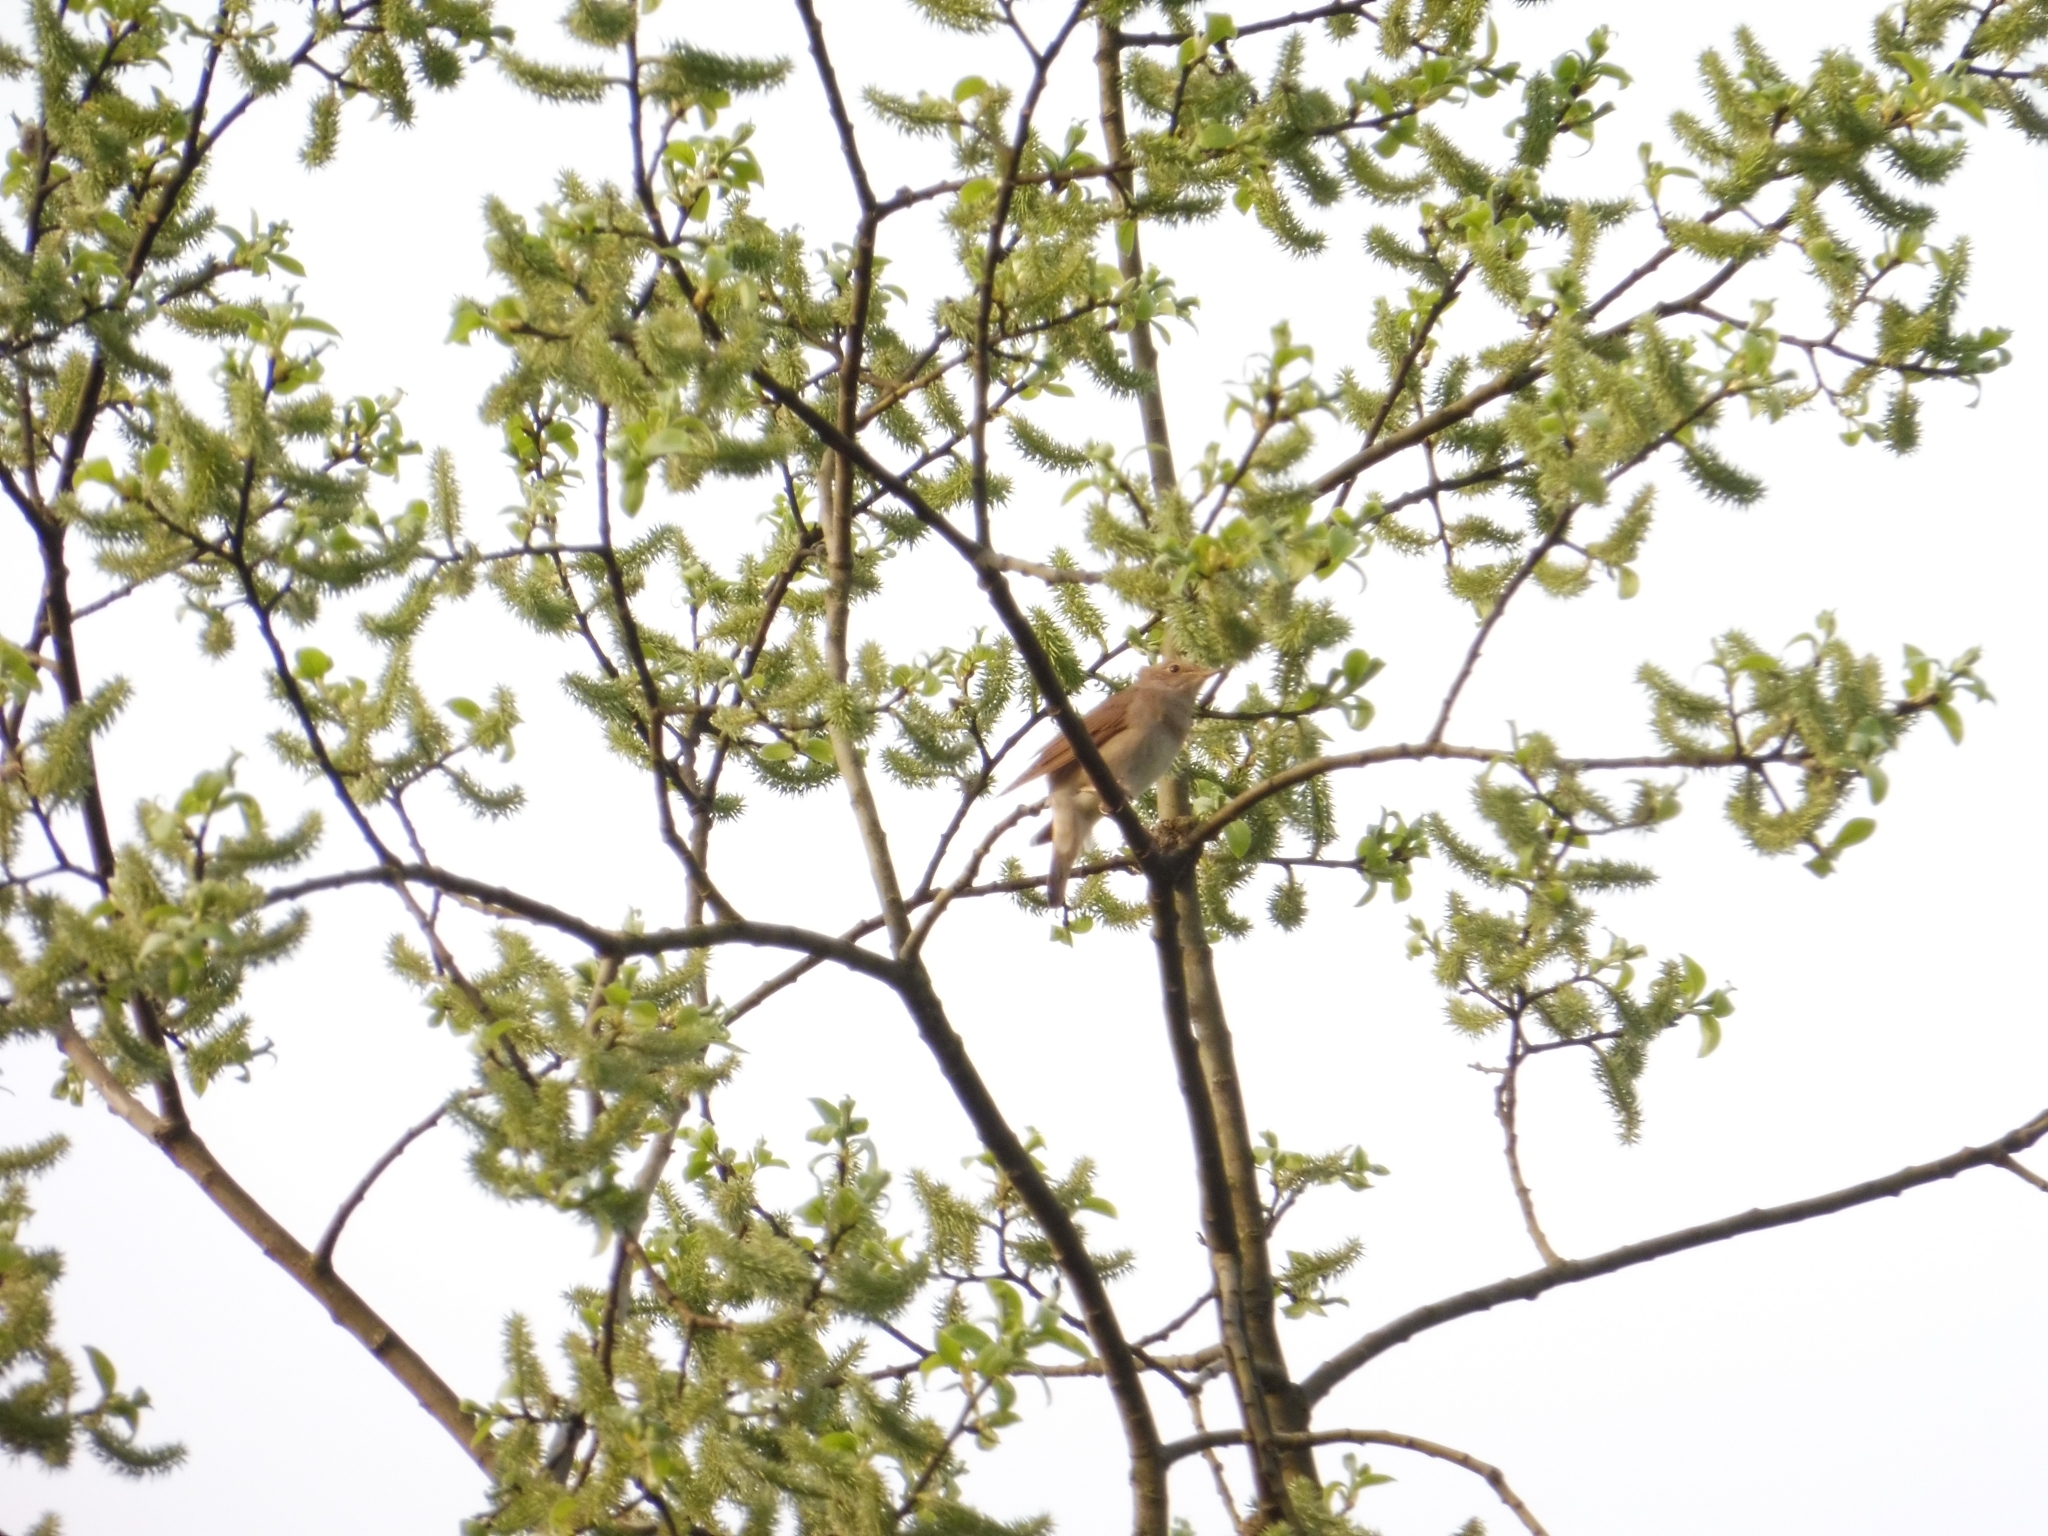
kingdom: Animalia
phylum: Chordata
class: Aves
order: Passeriformes
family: Muscicapidae
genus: Luscinia
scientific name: Luscinia luscinia
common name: Thrush nightingale
